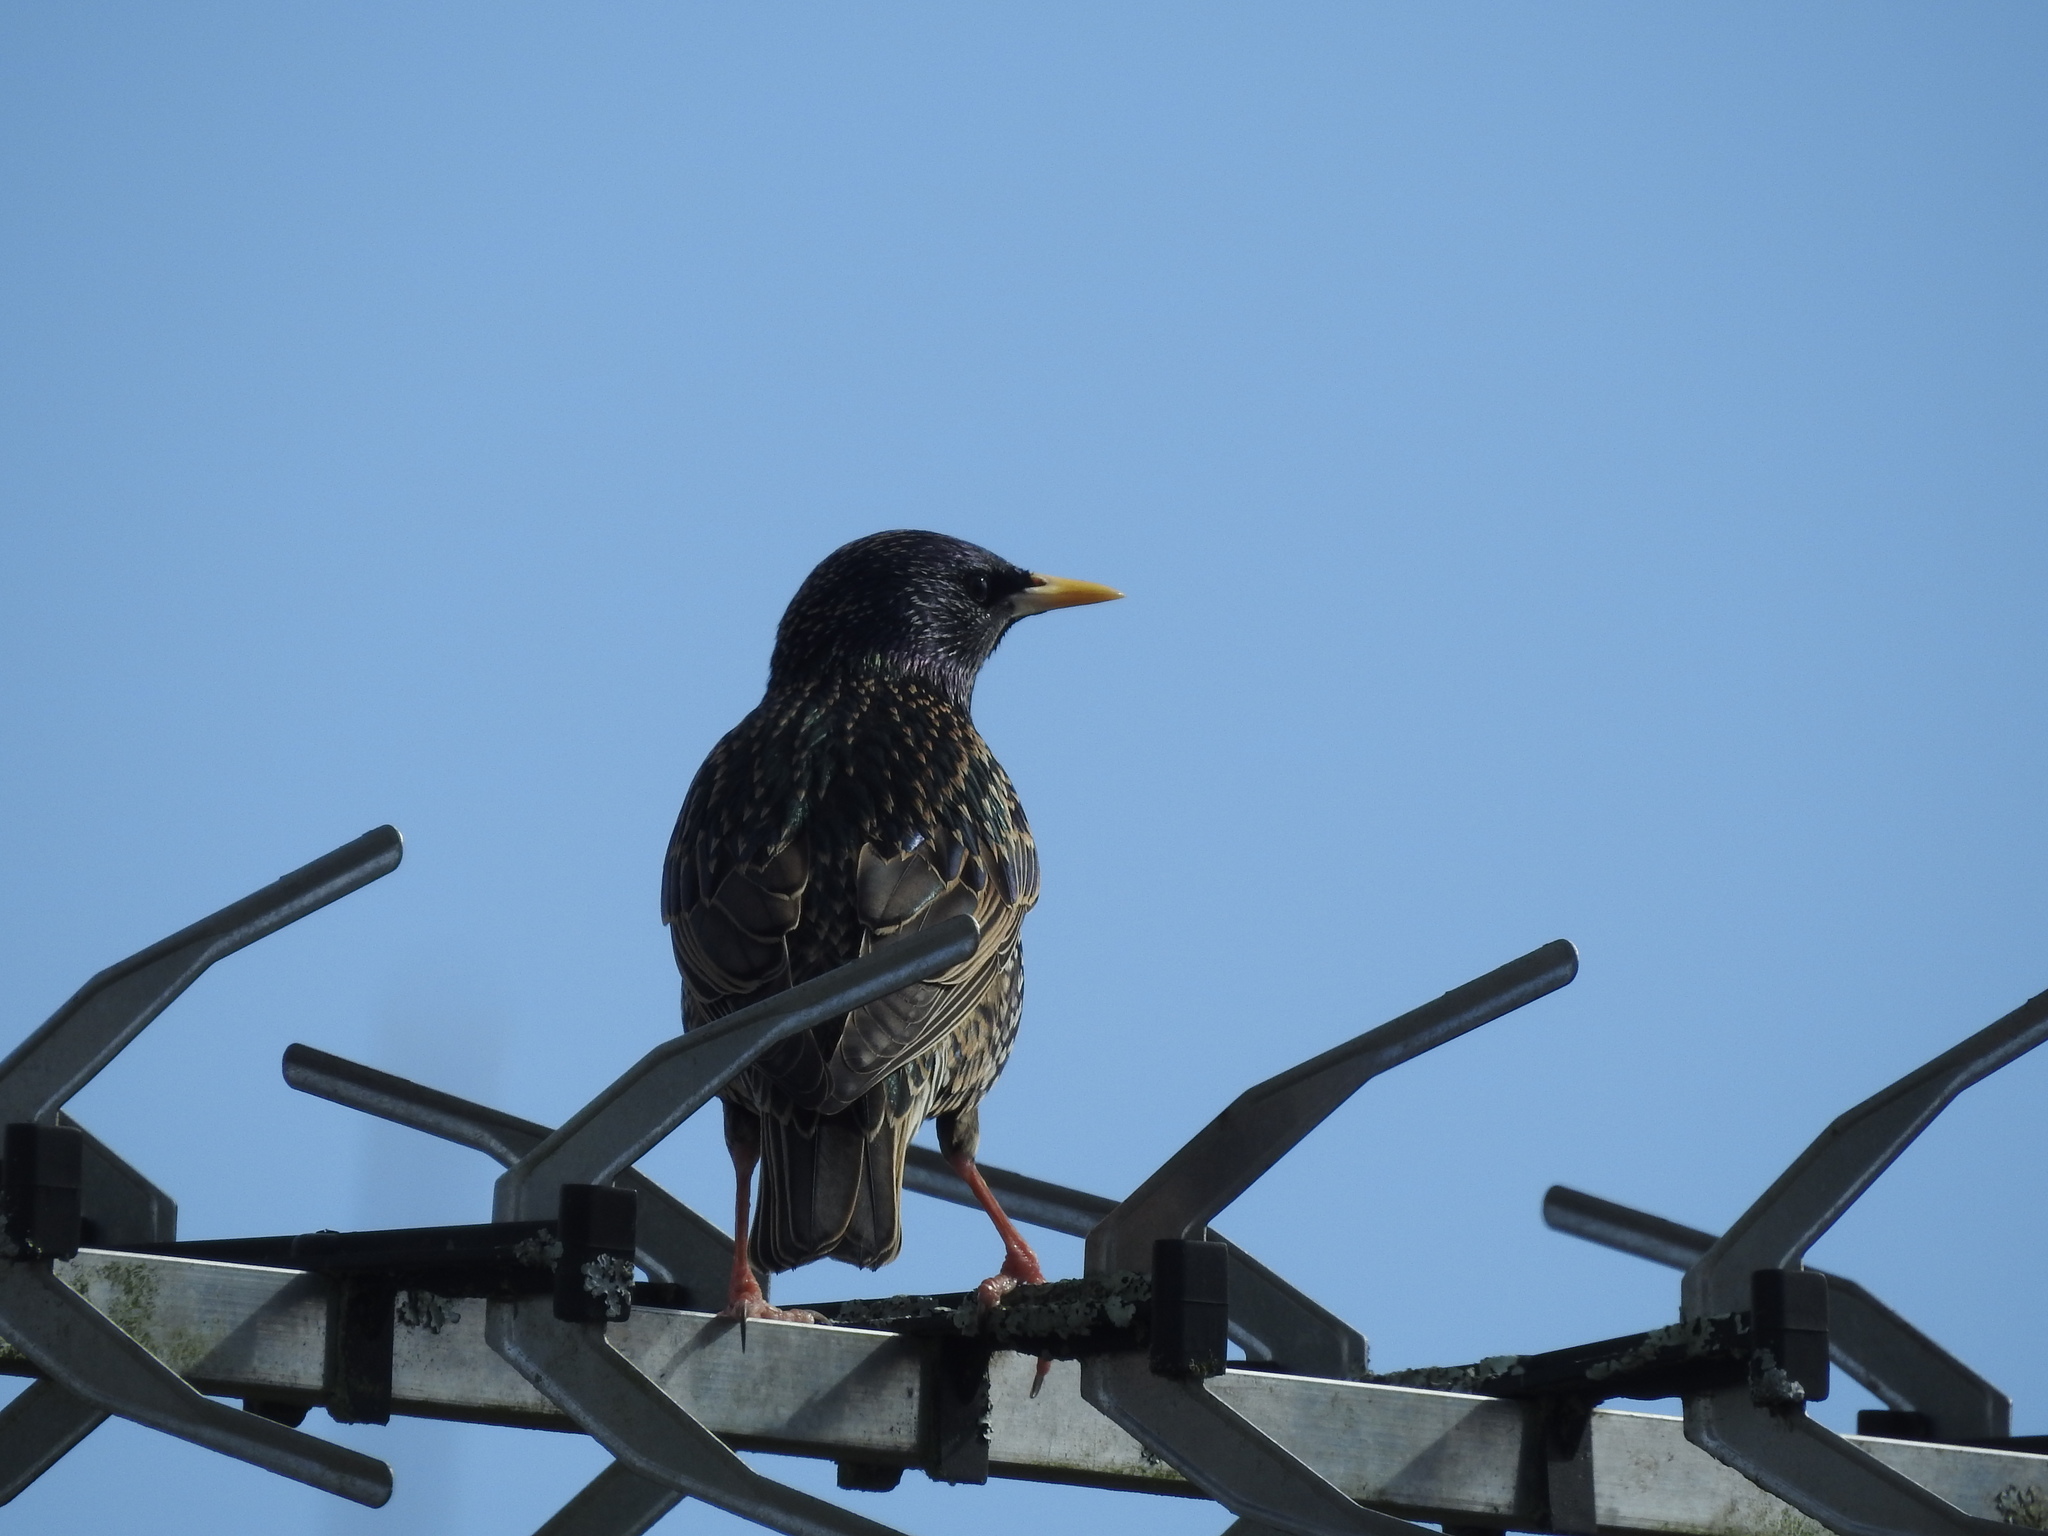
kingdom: Animalia
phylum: Chordata
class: Aves
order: Passeriformes
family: Sturnidae
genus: Sturnus
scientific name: Sturnus vulgaris
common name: Common starling
